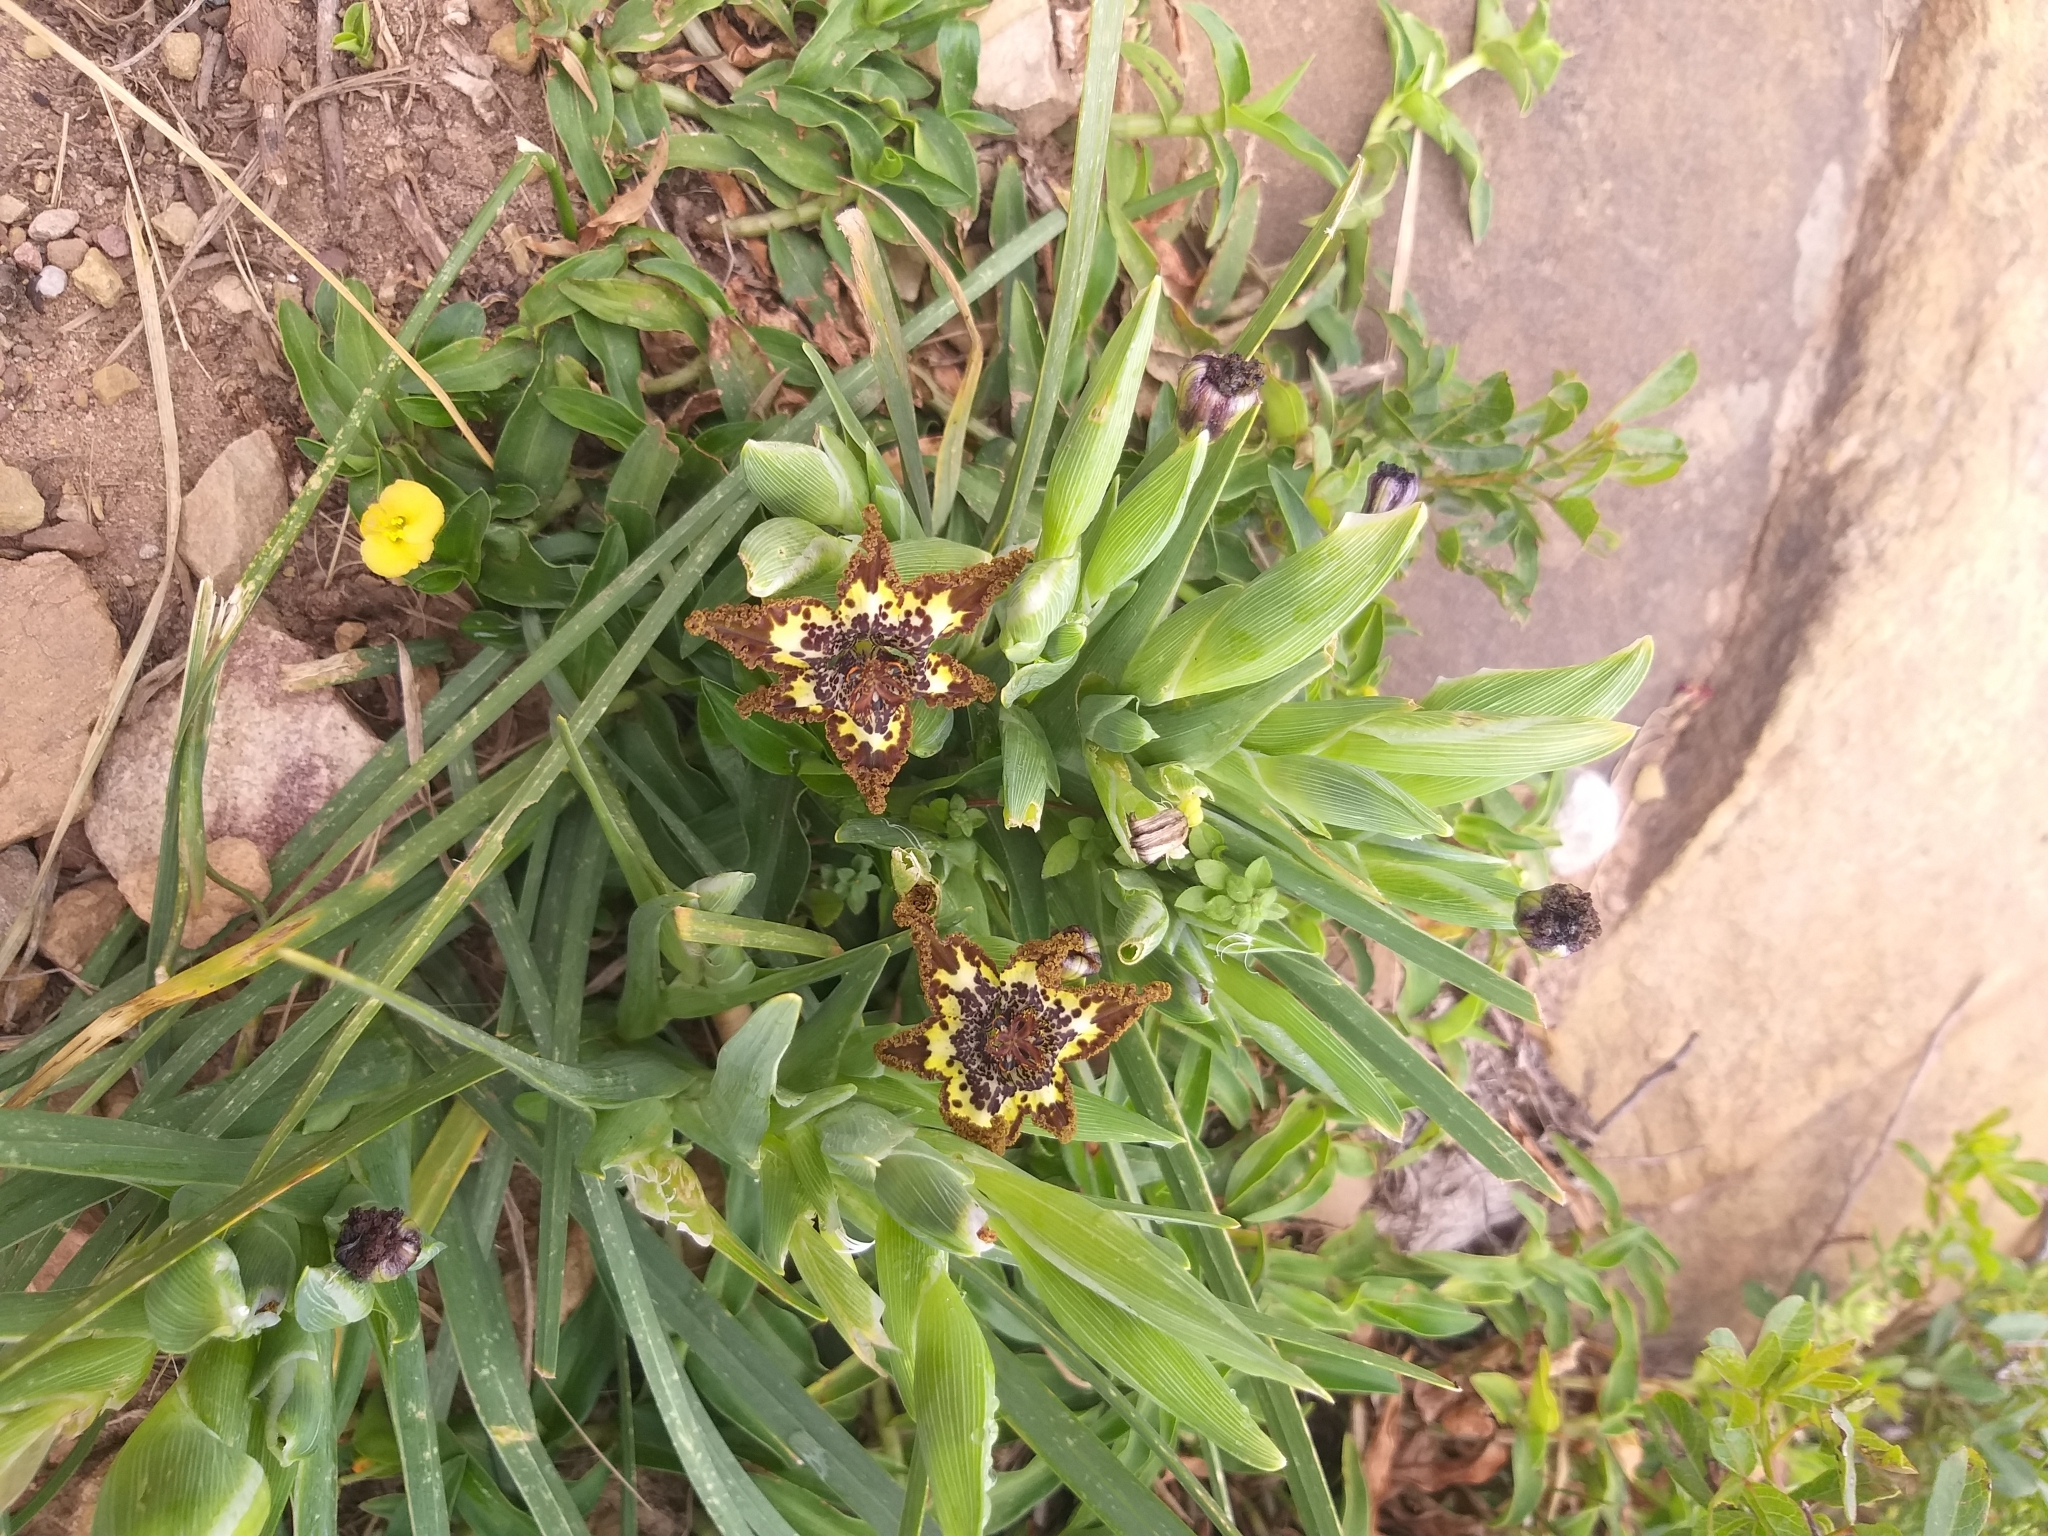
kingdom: Plantae
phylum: Tracheophyta
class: Liliopsida
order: Asparagales
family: Iridaceae
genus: Ferraria
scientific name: Ferraria crispa
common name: Black-flag
